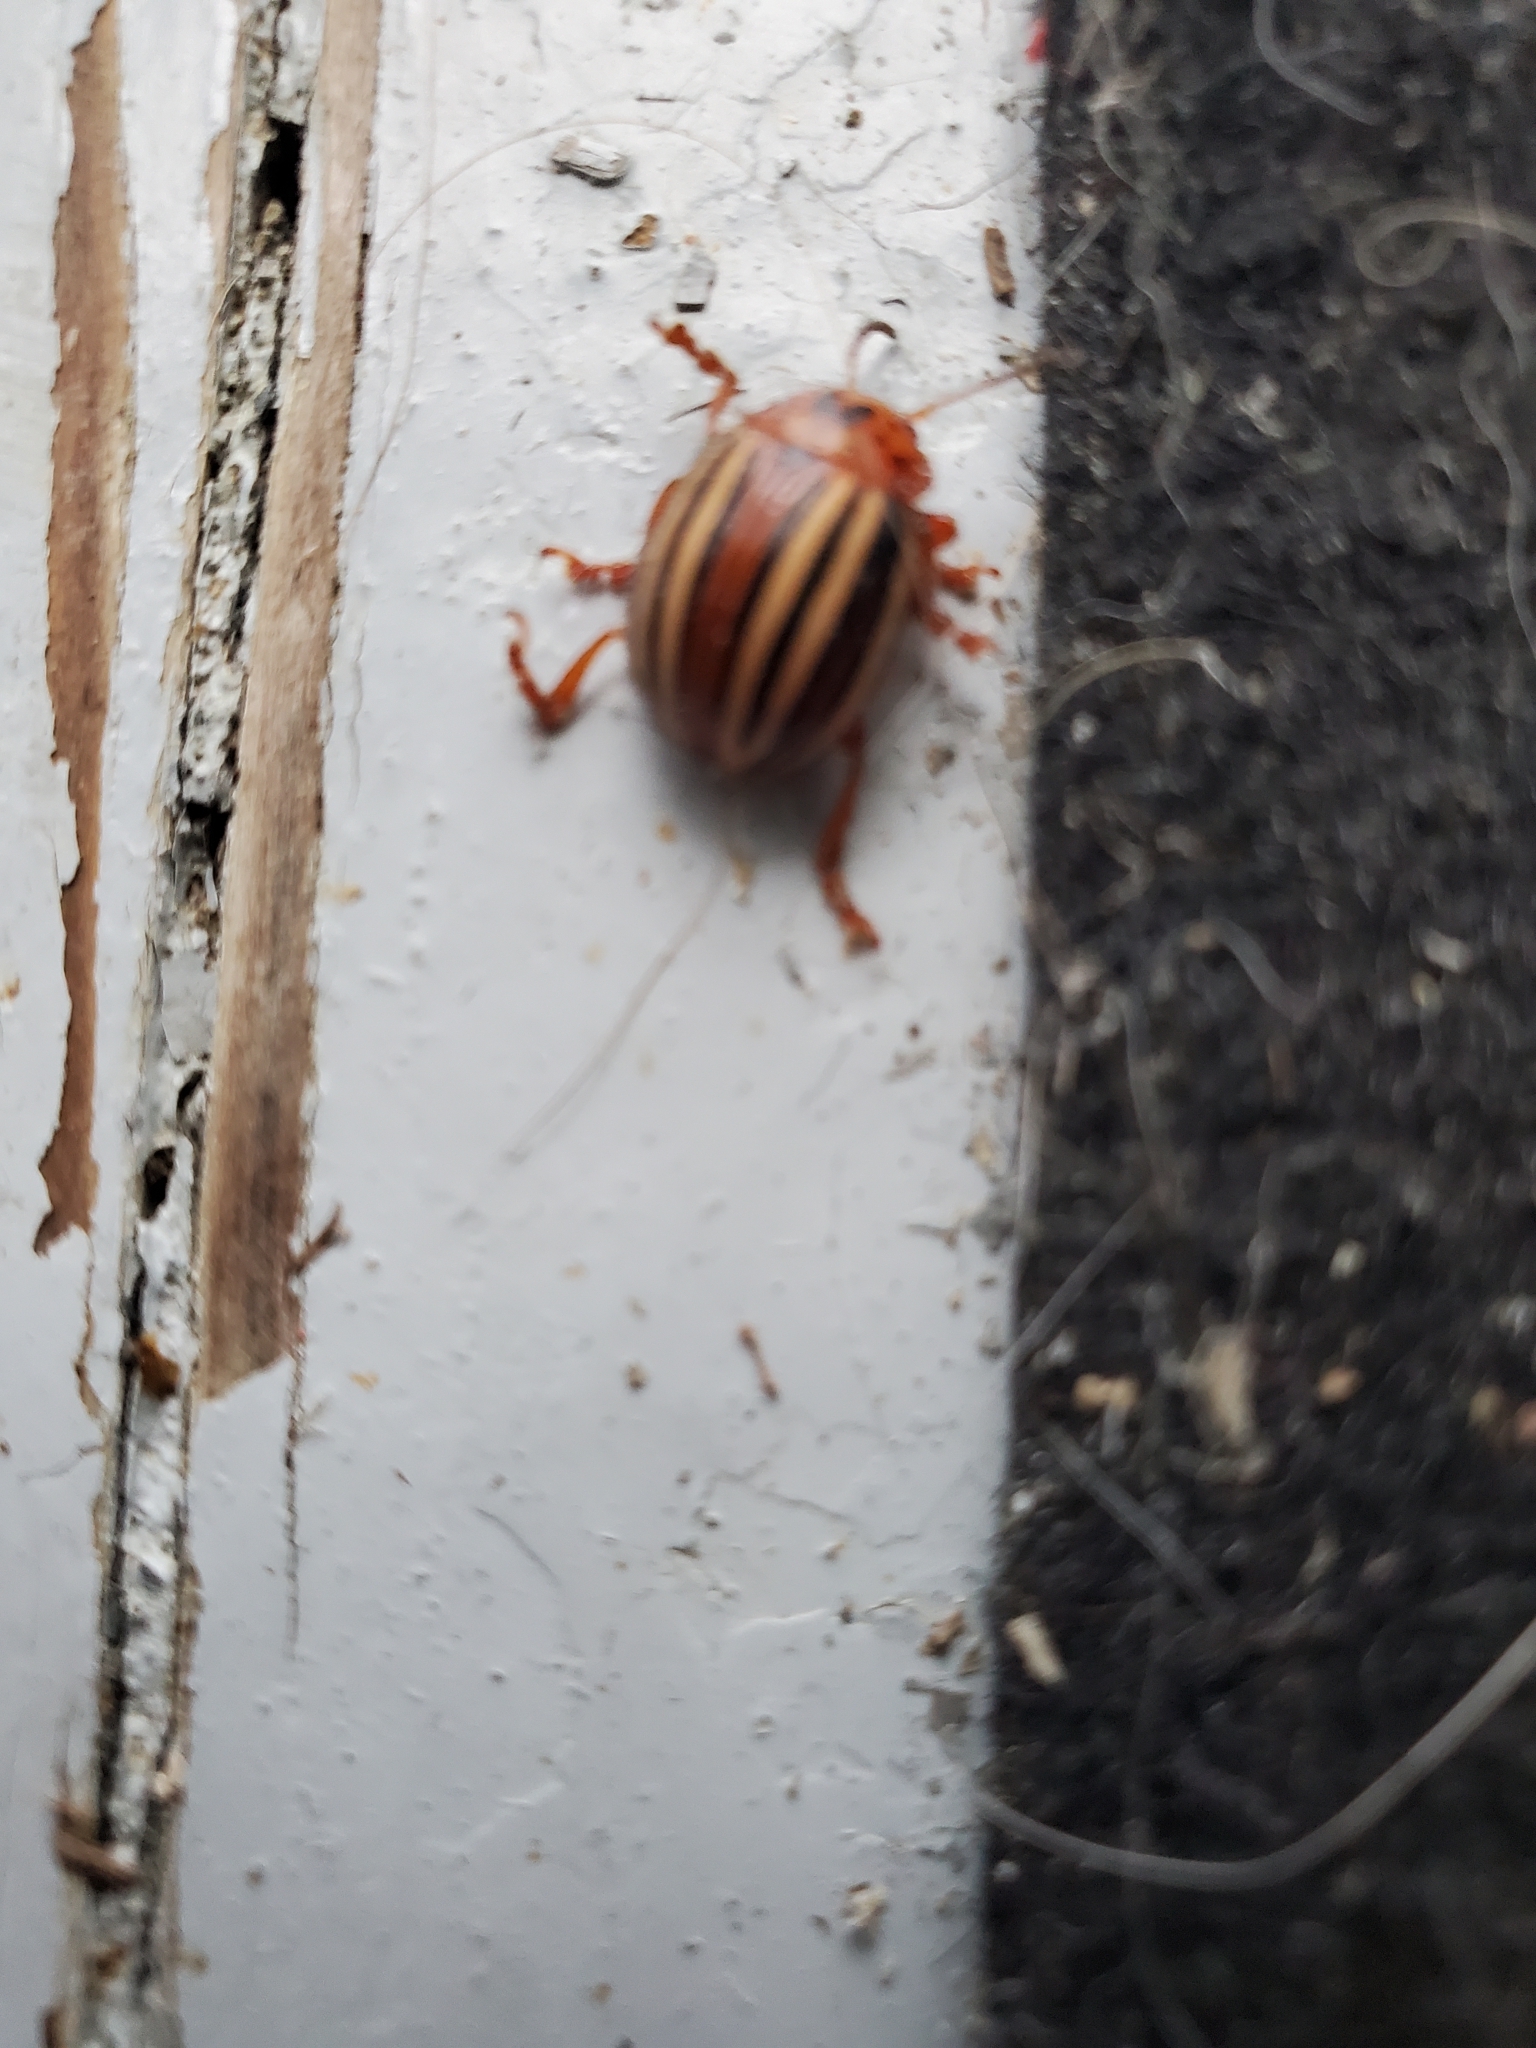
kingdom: Animalia
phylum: Arthropoda
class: Insecta
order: Coleoptera
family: Chrysomelidae
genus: Leptinotarsa
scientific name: Leptinotarsa juncta
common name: False potato beetle
